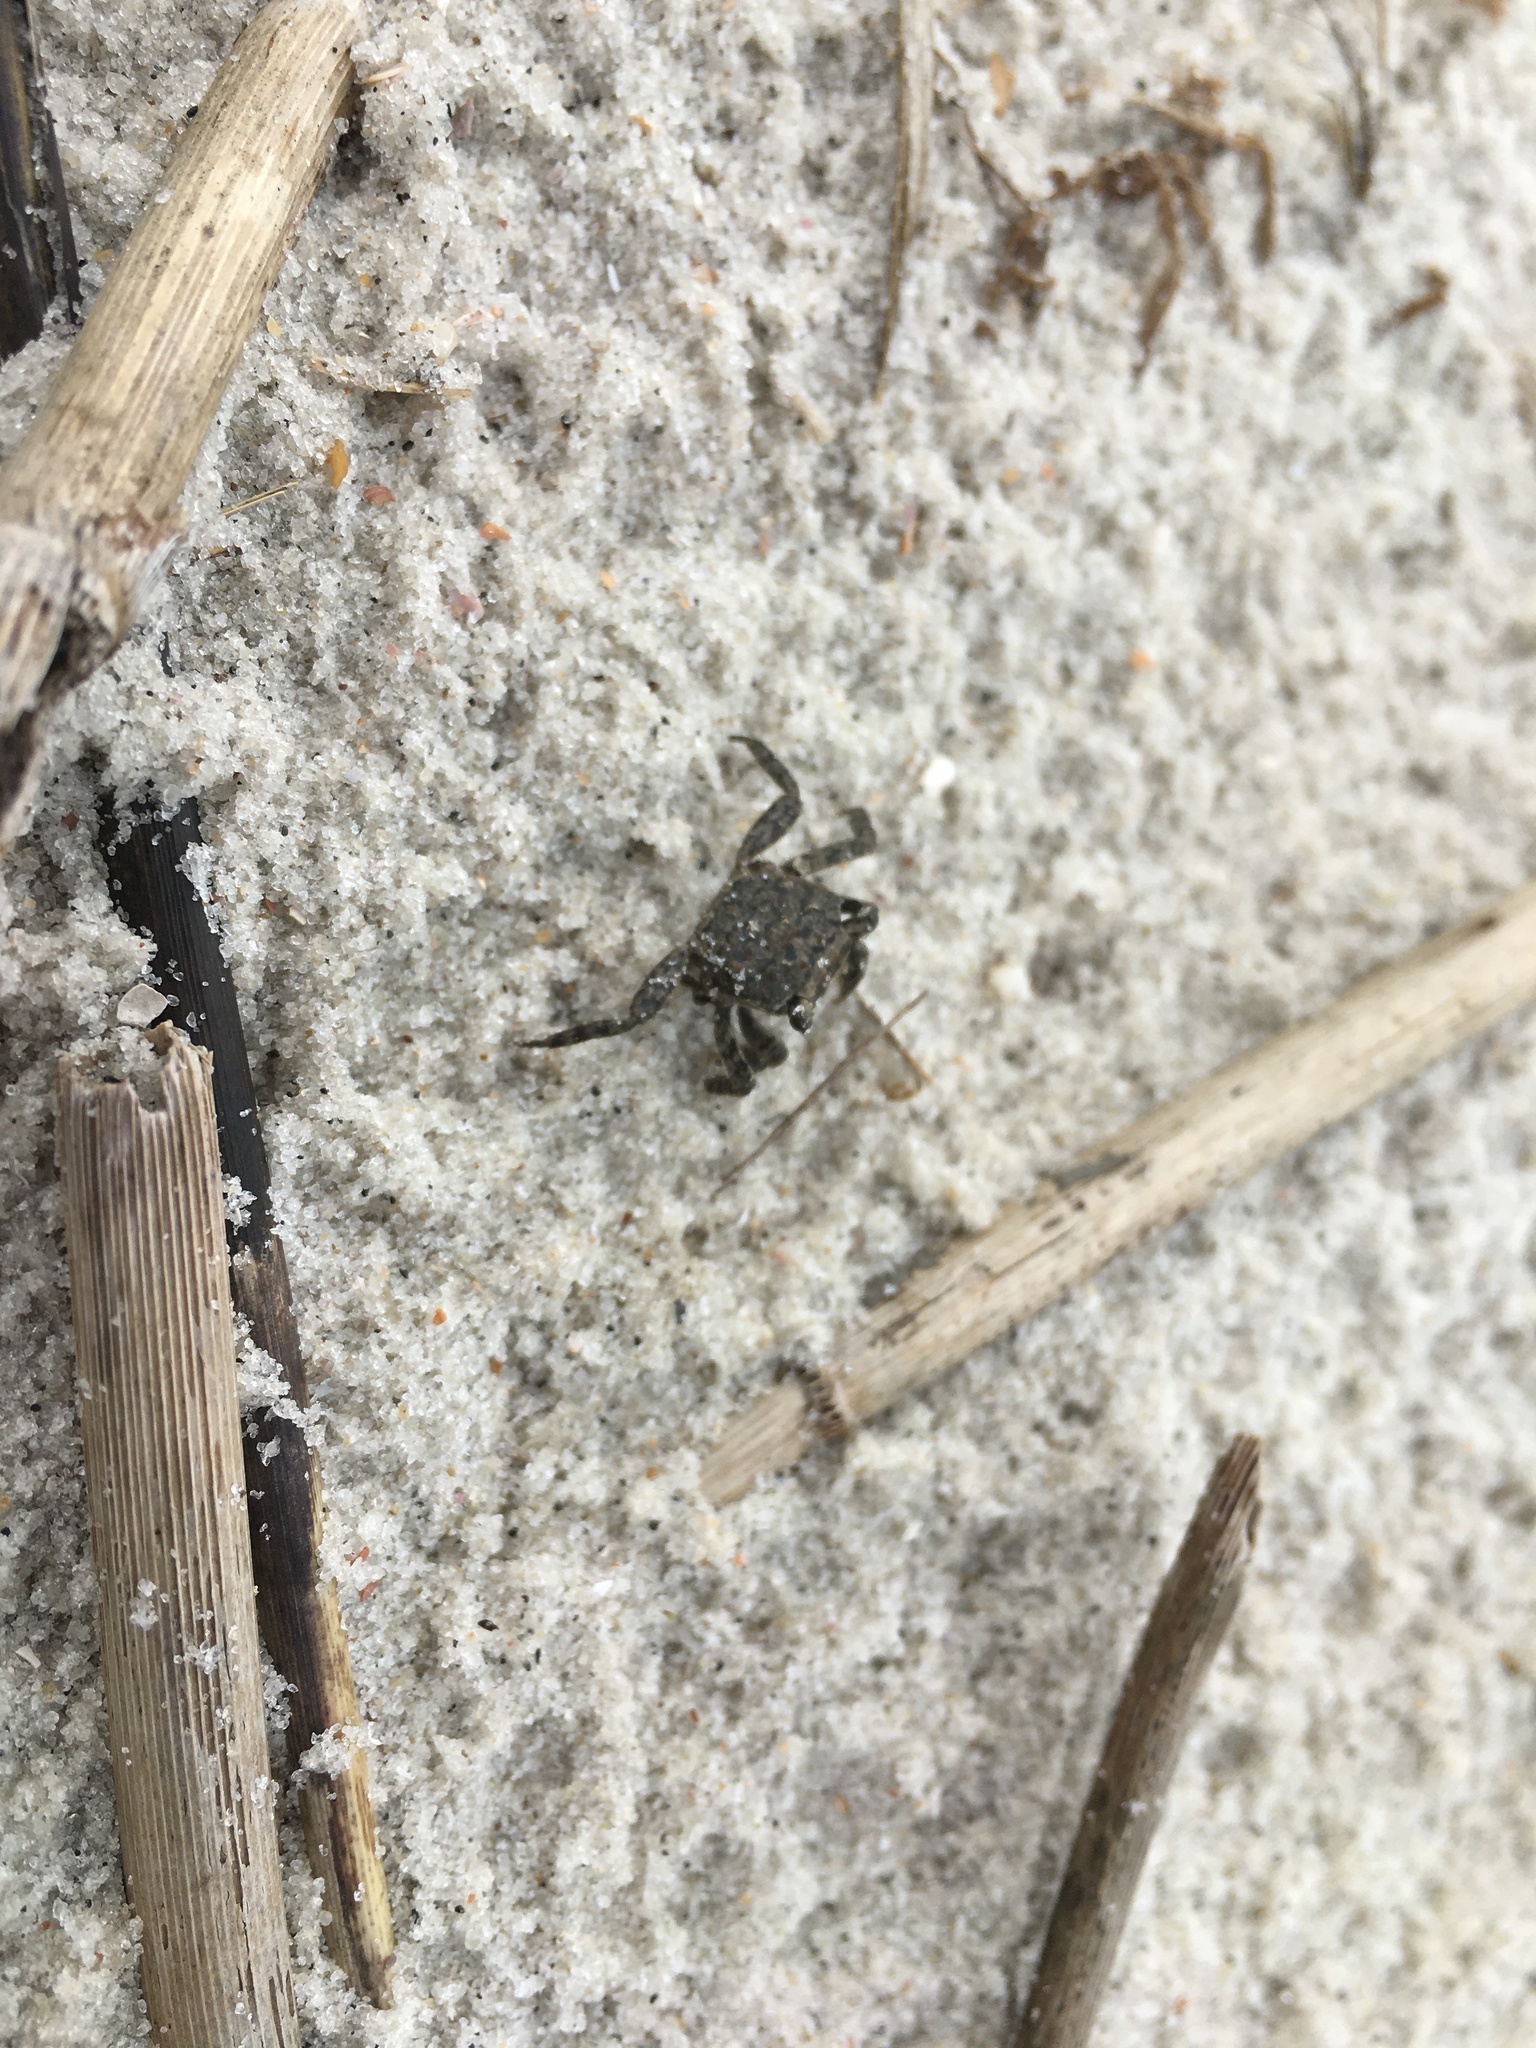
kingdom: Animalia
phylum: Arthropoda
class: Malacostraca
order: Decapoda
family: Sesarmidae
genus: Armases
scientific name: Armases cinereum
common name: Squareback marsh crab
